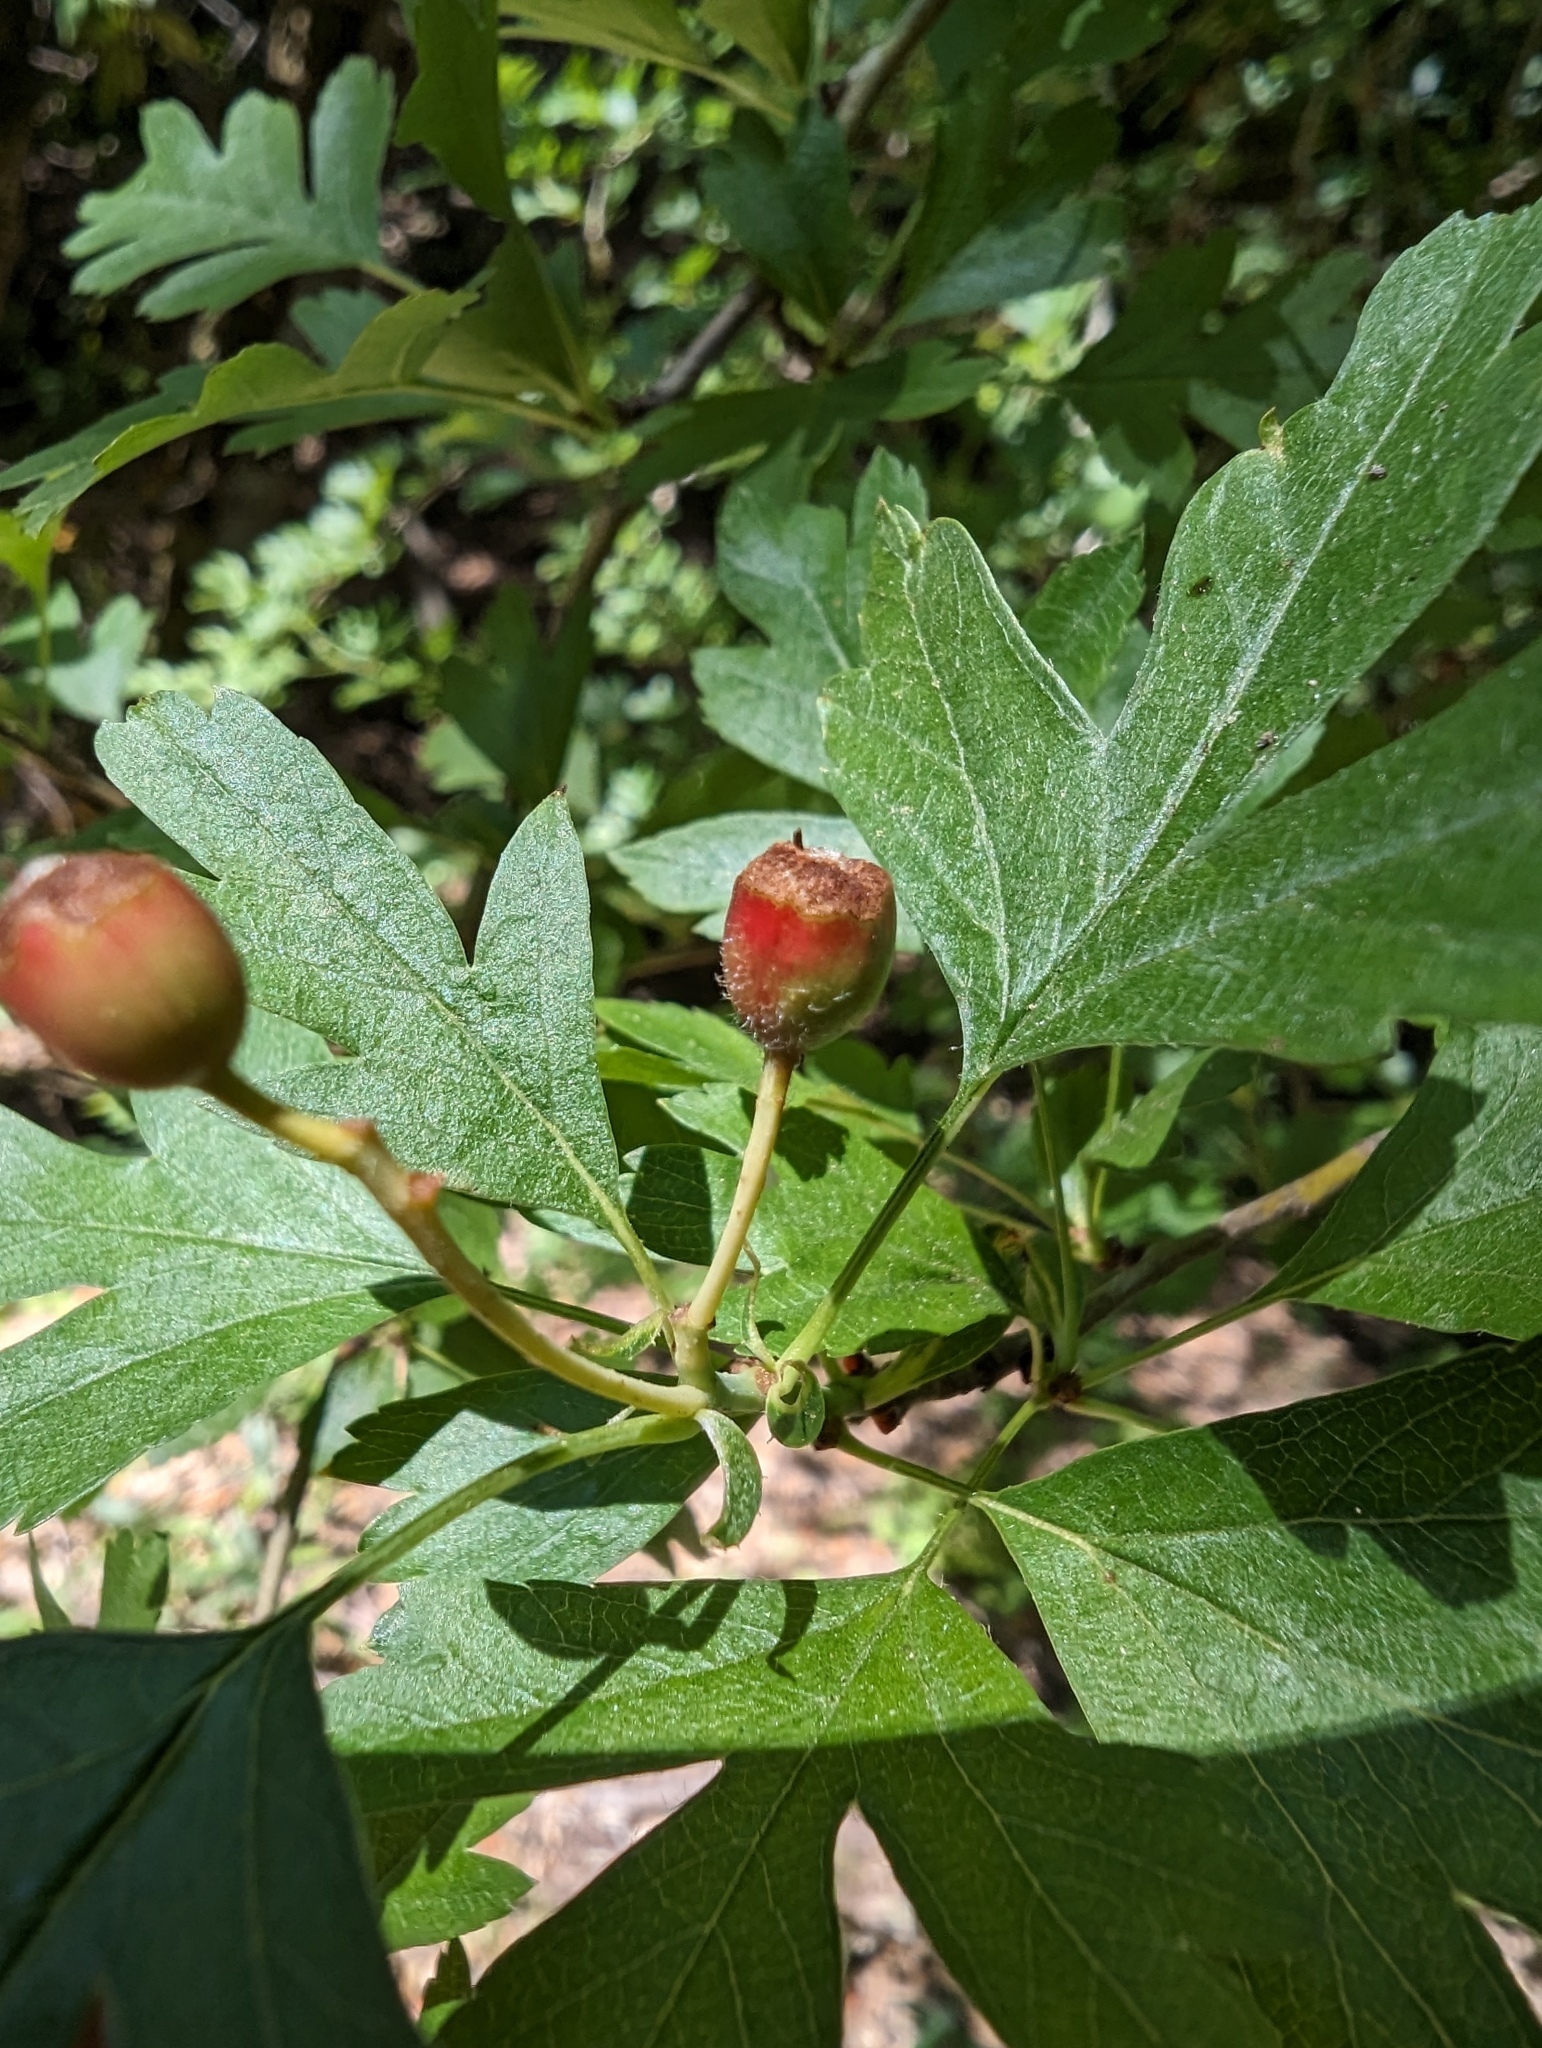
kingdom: Plantae
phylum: Tracheophyta
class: Magnoliopsida
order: Rosales
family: Rosaceae
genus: Crataegus
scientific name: Crataegus monogyna
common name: Hawthorn
